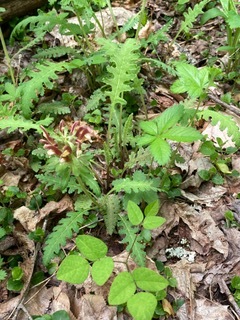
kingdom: Plantae
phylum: Tracheophyta
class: Magnoliopsida
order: Lamiales
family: Orobanchaceae
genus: Pedicularis
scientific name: Pedicularis canadensis
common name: Early lousewort
